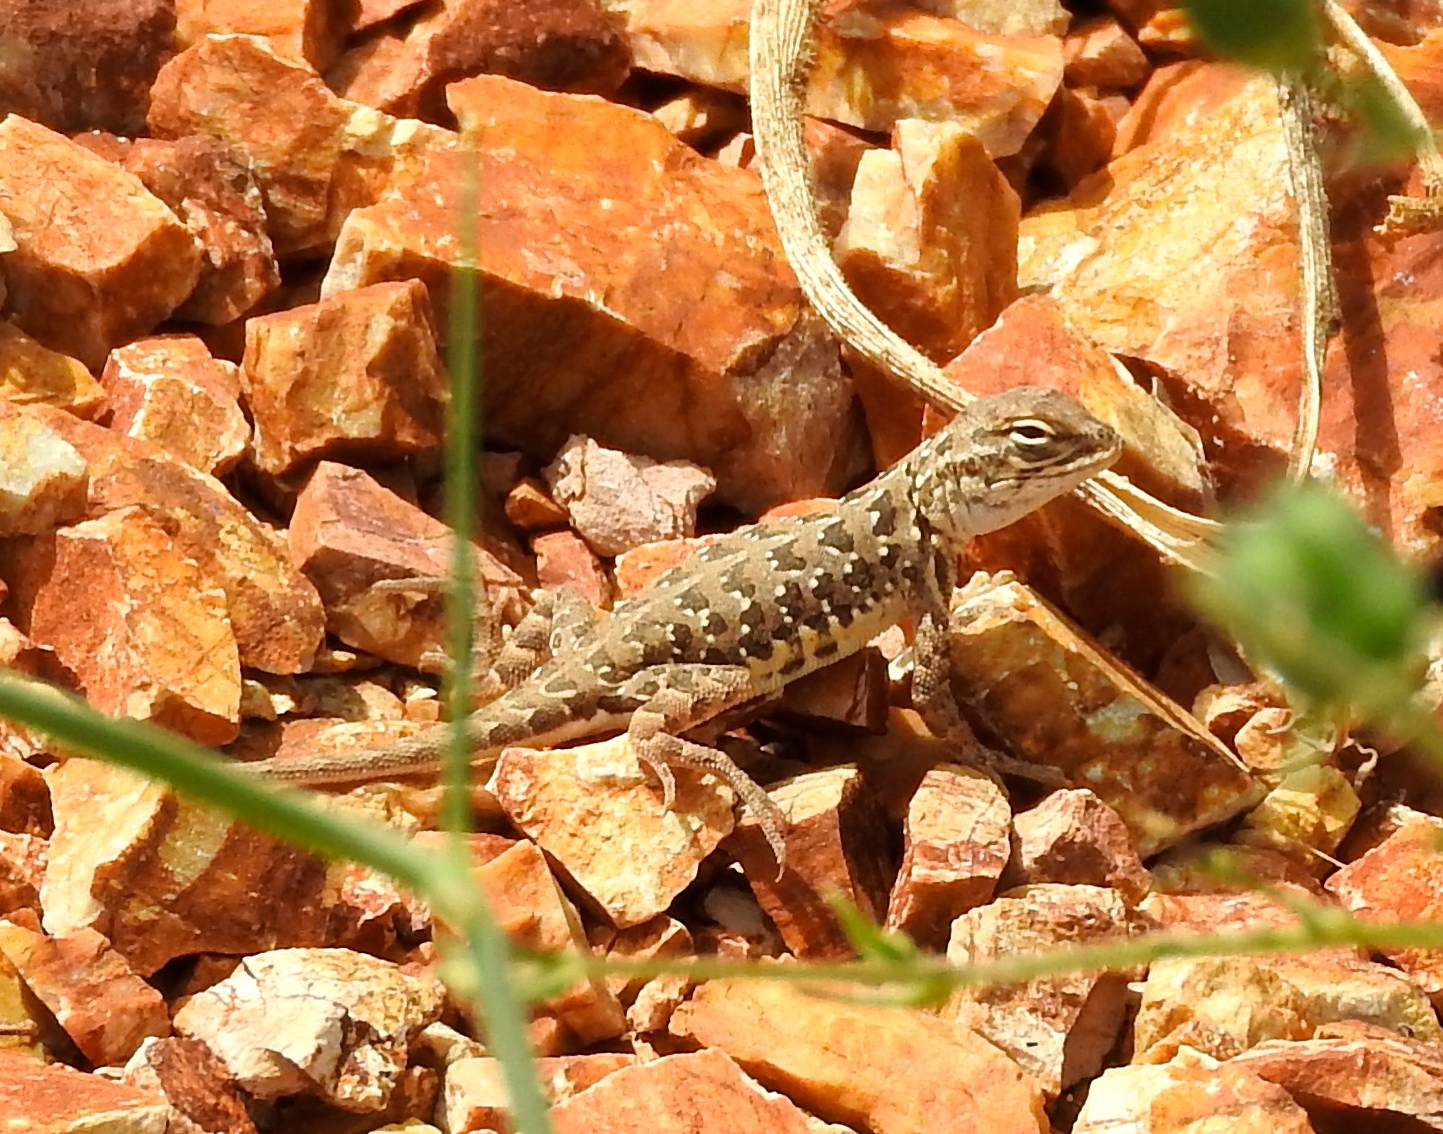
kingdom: Animalia
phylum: Chordata
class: Squamata
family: Phrynosomatidae
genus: Holbrookia
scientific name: Holbrookia elegans
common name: Elegant earless lizard
